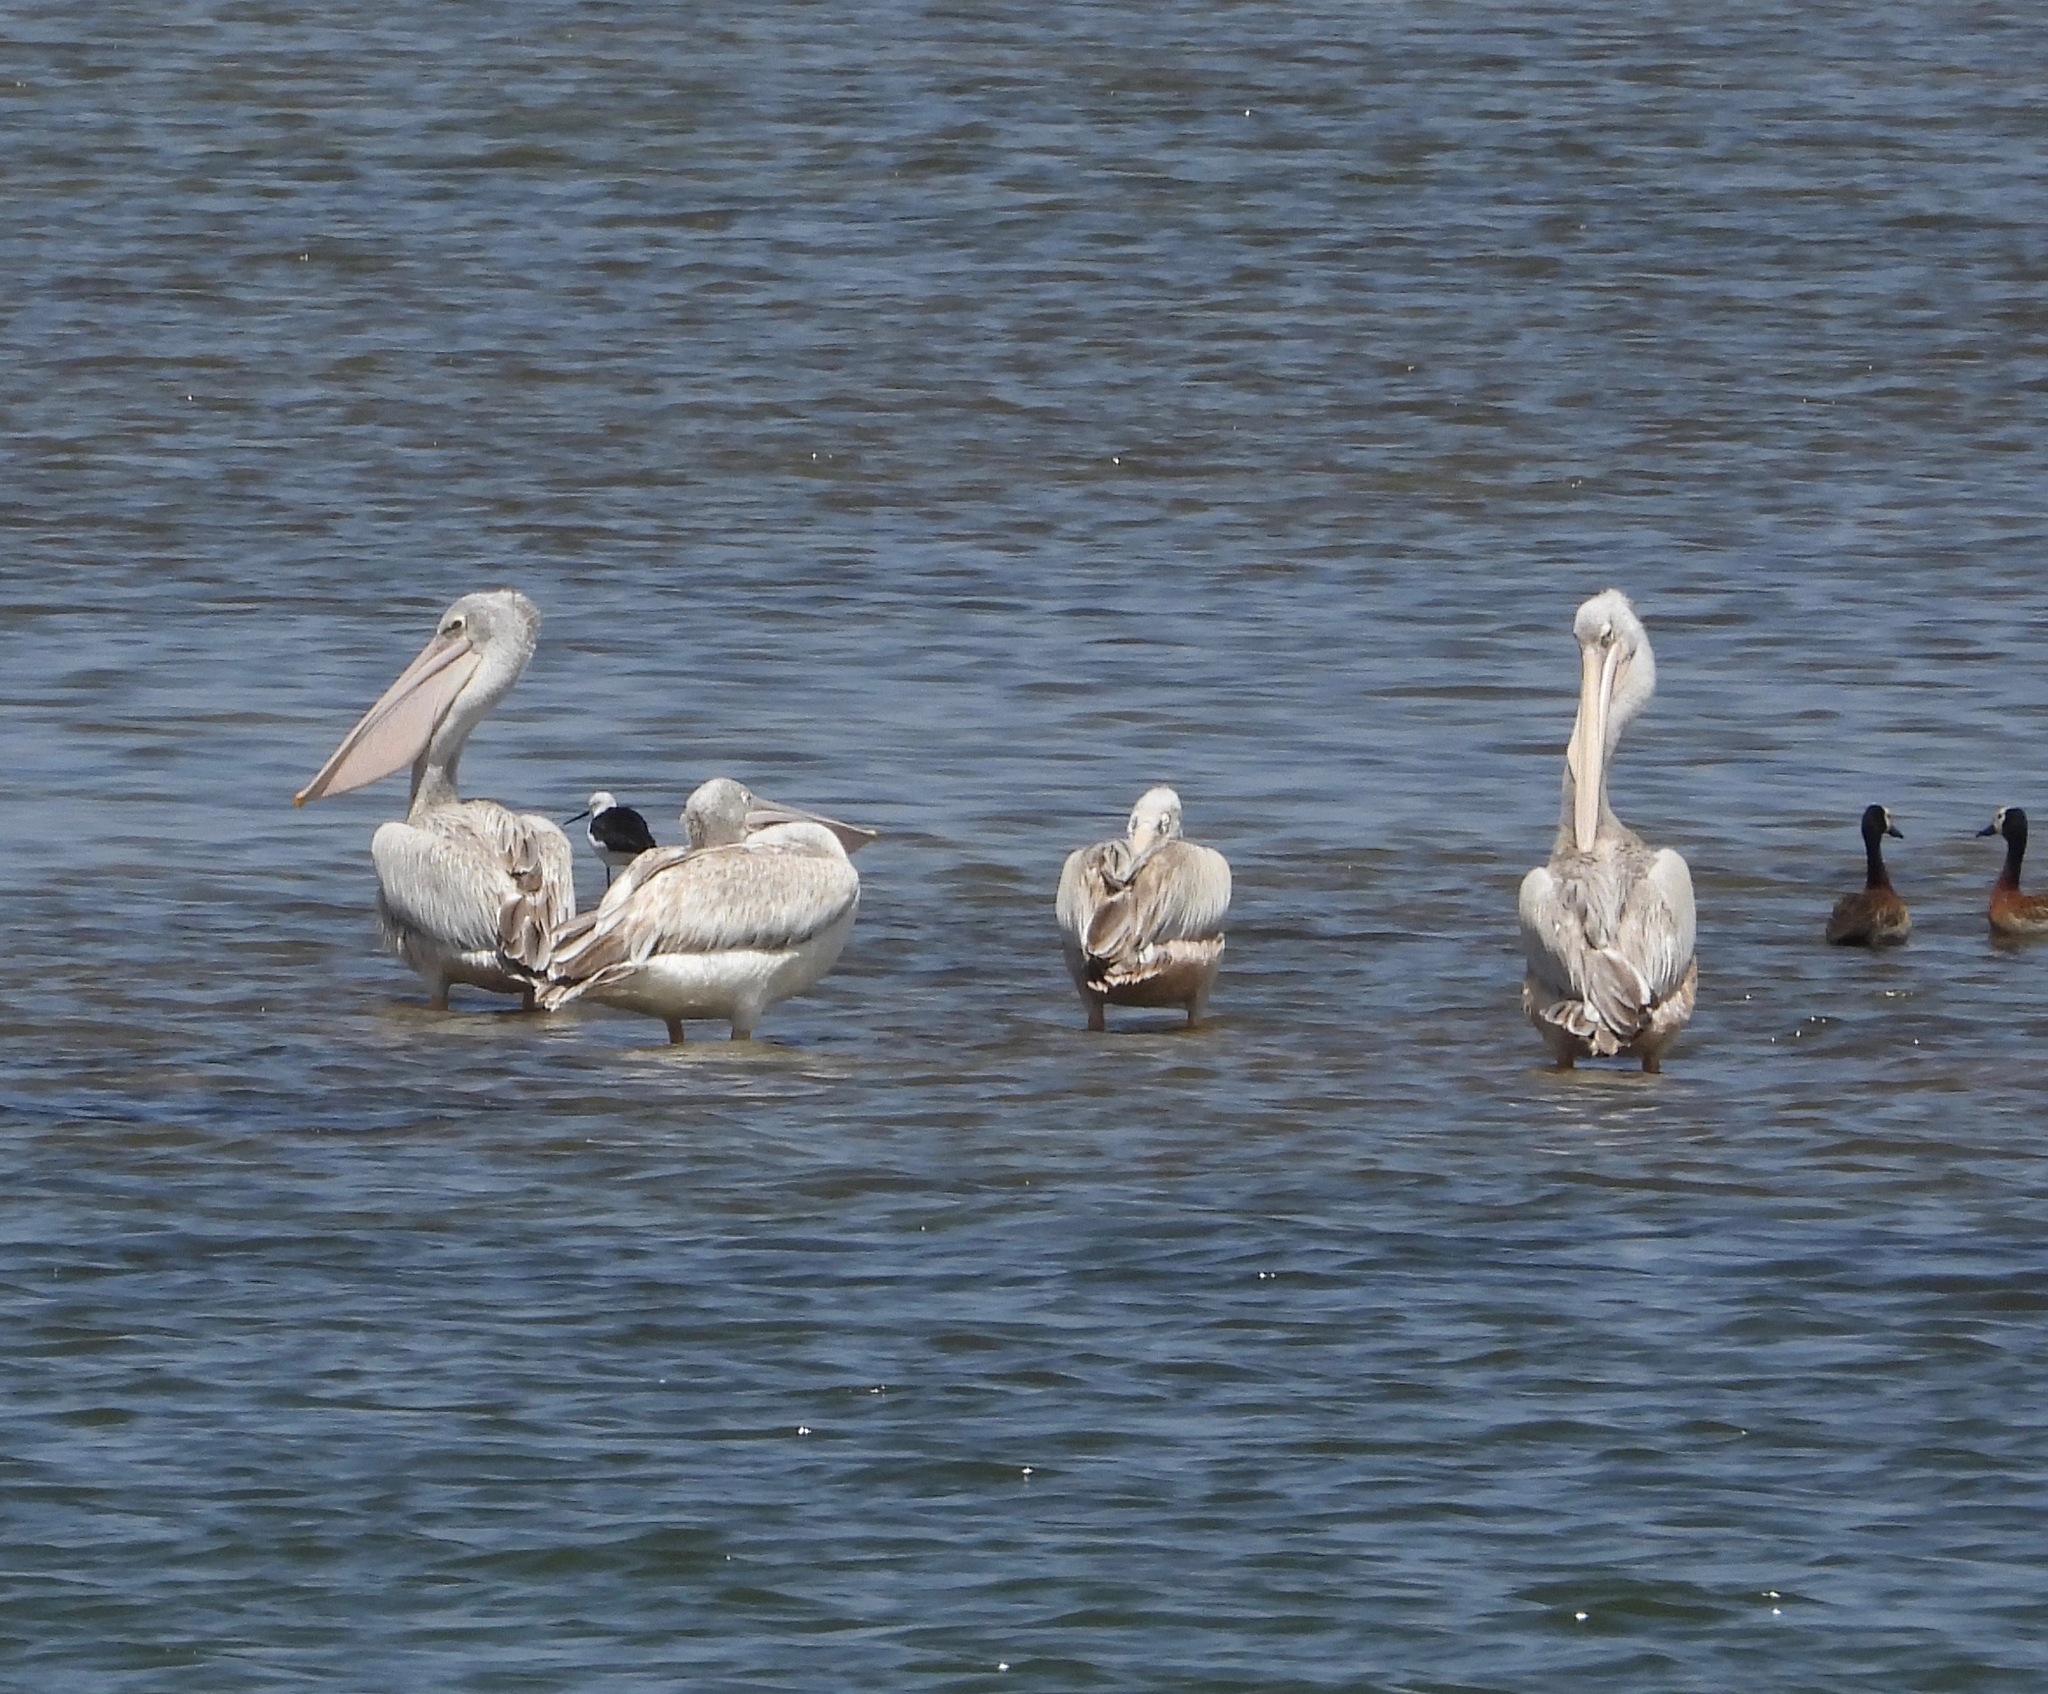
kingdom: Animalia
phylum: Chordata
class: Aves
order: Pelecaniformes
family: Pelecanidae
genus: Pelecanus
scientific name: Pelecanus rufescens
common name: Pink-backed pelican
